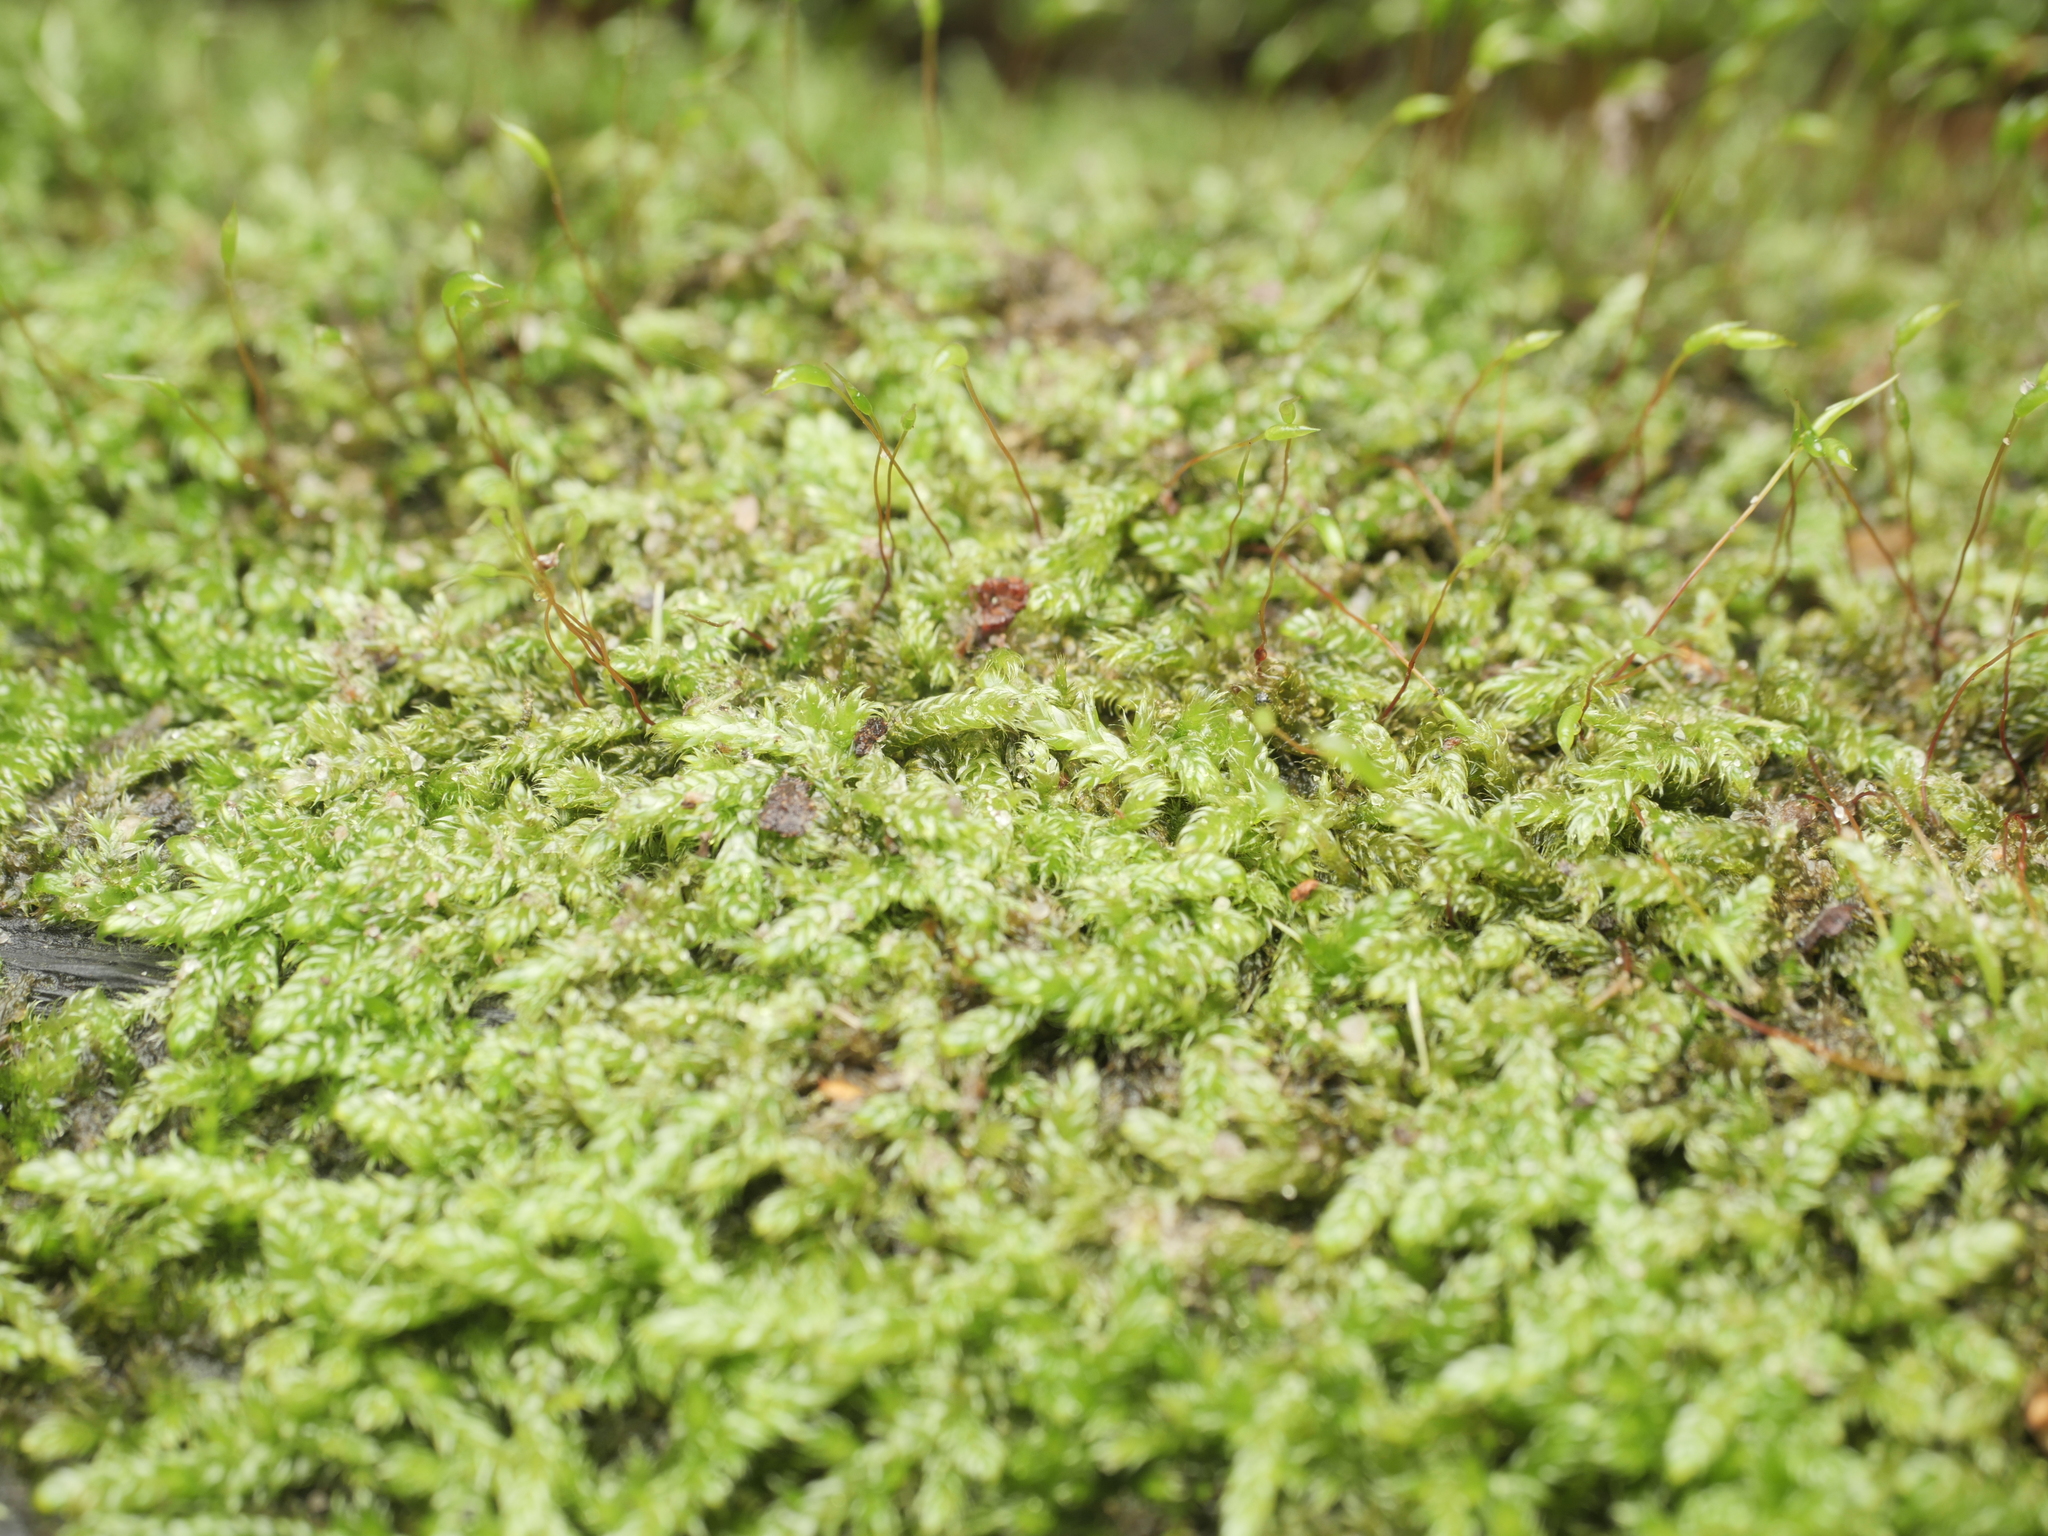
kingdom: Plantae
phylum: Bryophyta
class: Bryopsida
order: Hypnales
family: Hypnaceae
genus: Hypnum
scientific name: Hypnum cupressiforme
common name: Cypress-leaved plait-moss
